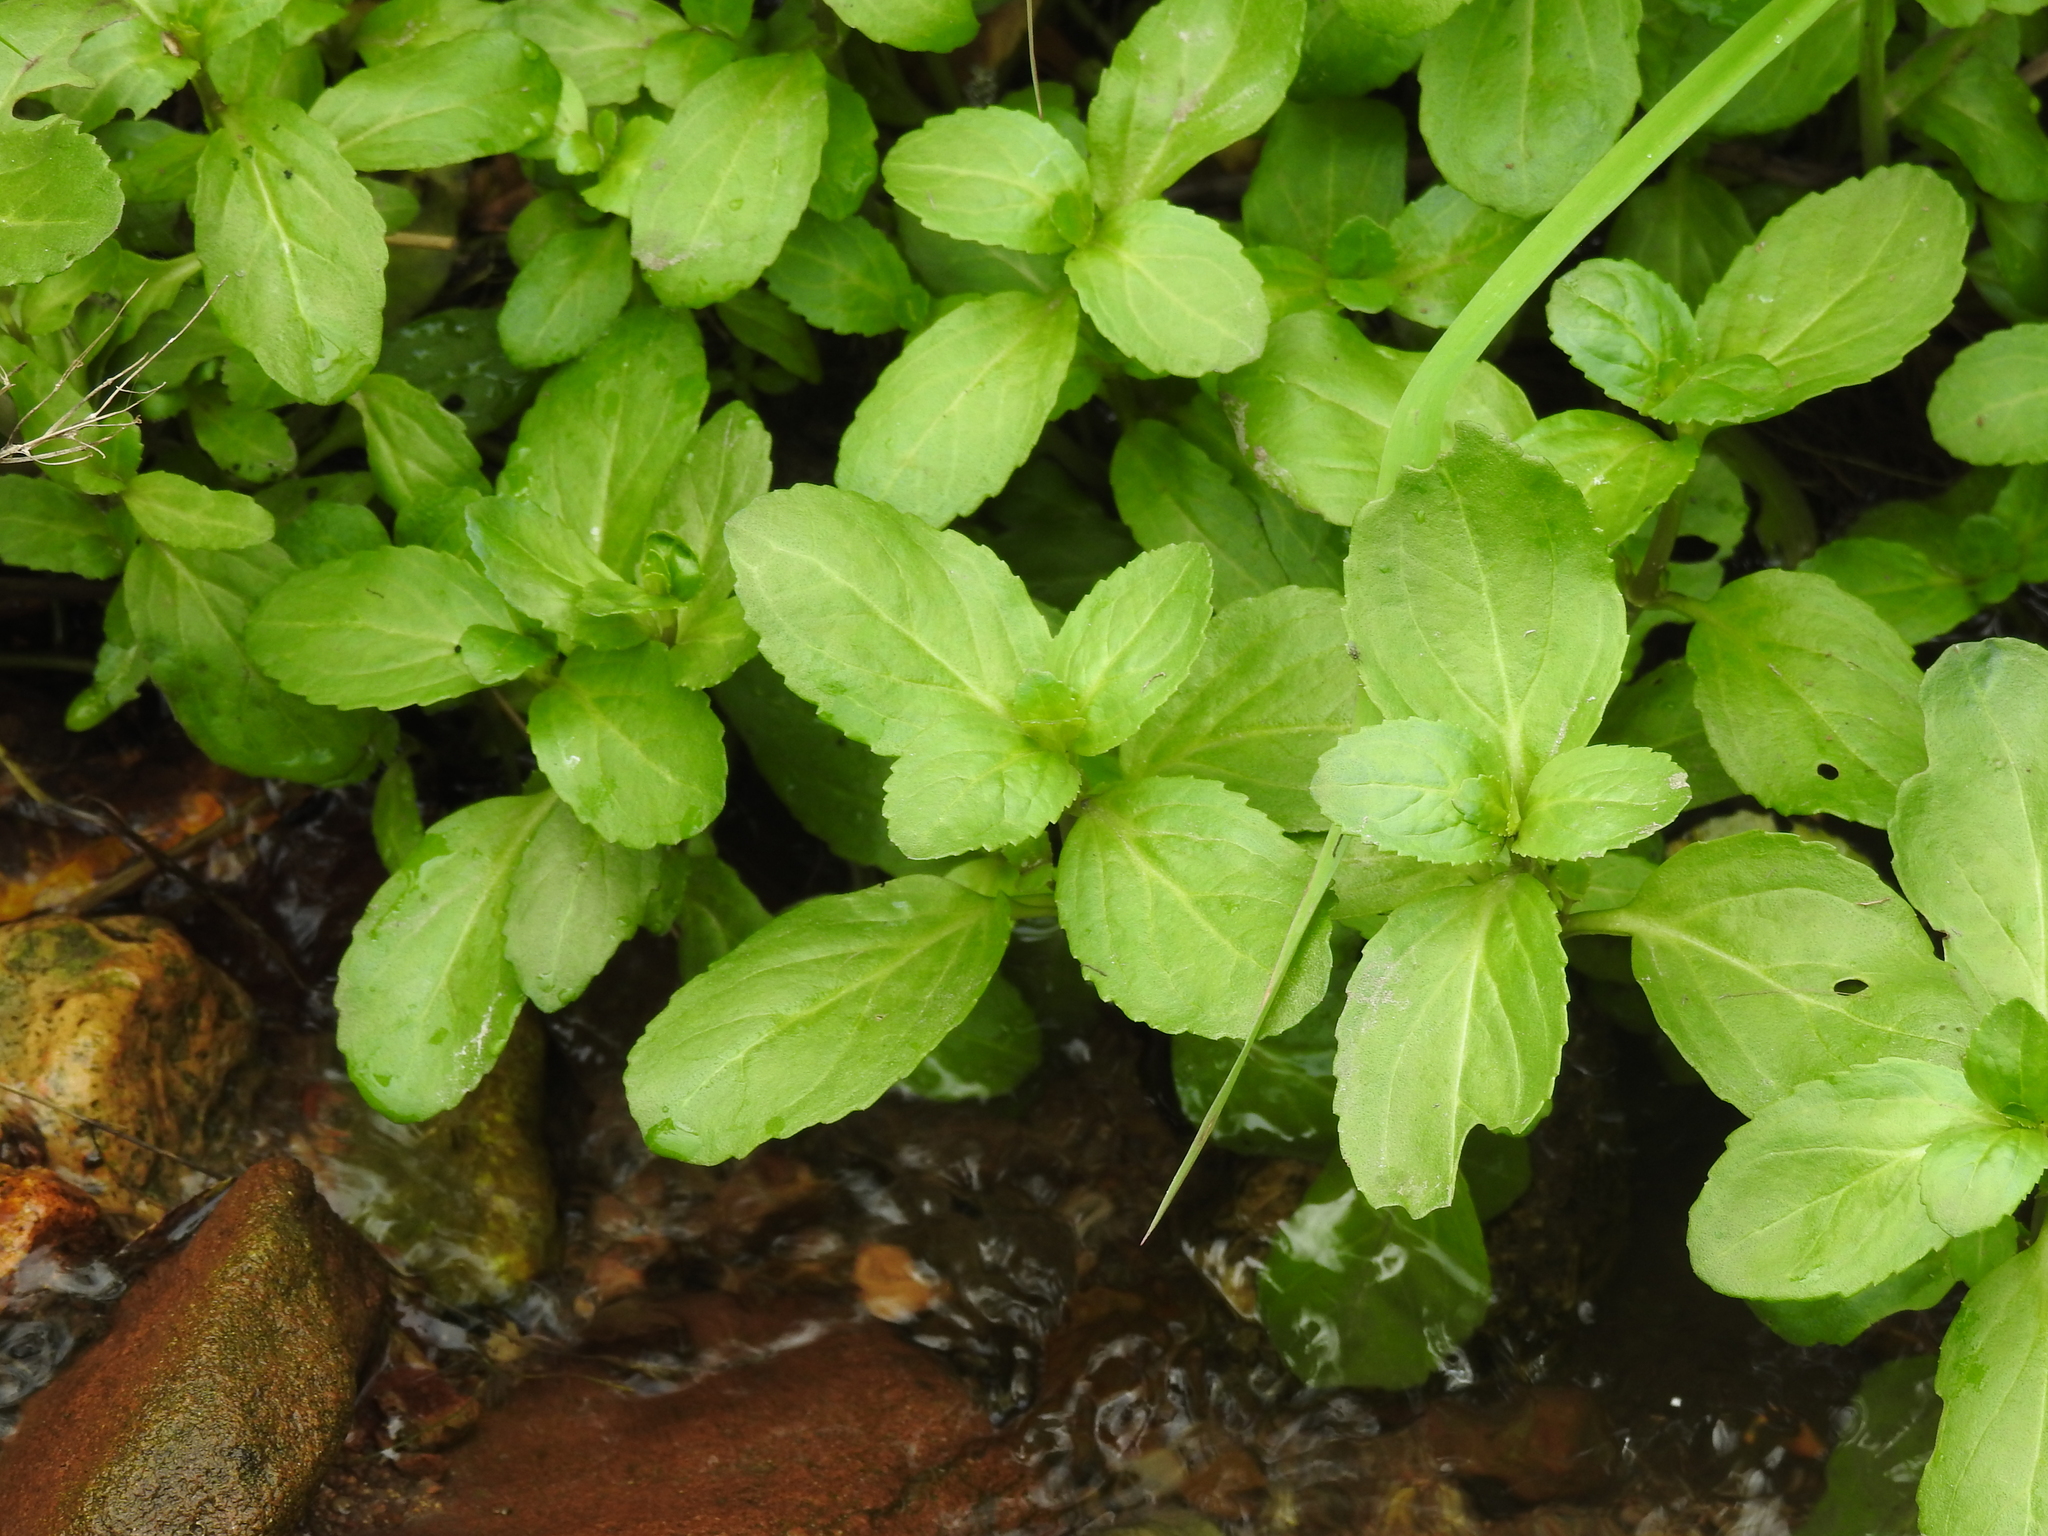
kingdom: Plantae
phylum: Tracheophyta
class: Magnoliopsida
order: Lamiales
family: Plantaginaceae
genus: Veronica
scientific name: Veronica beccabunga
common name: Brooklime
